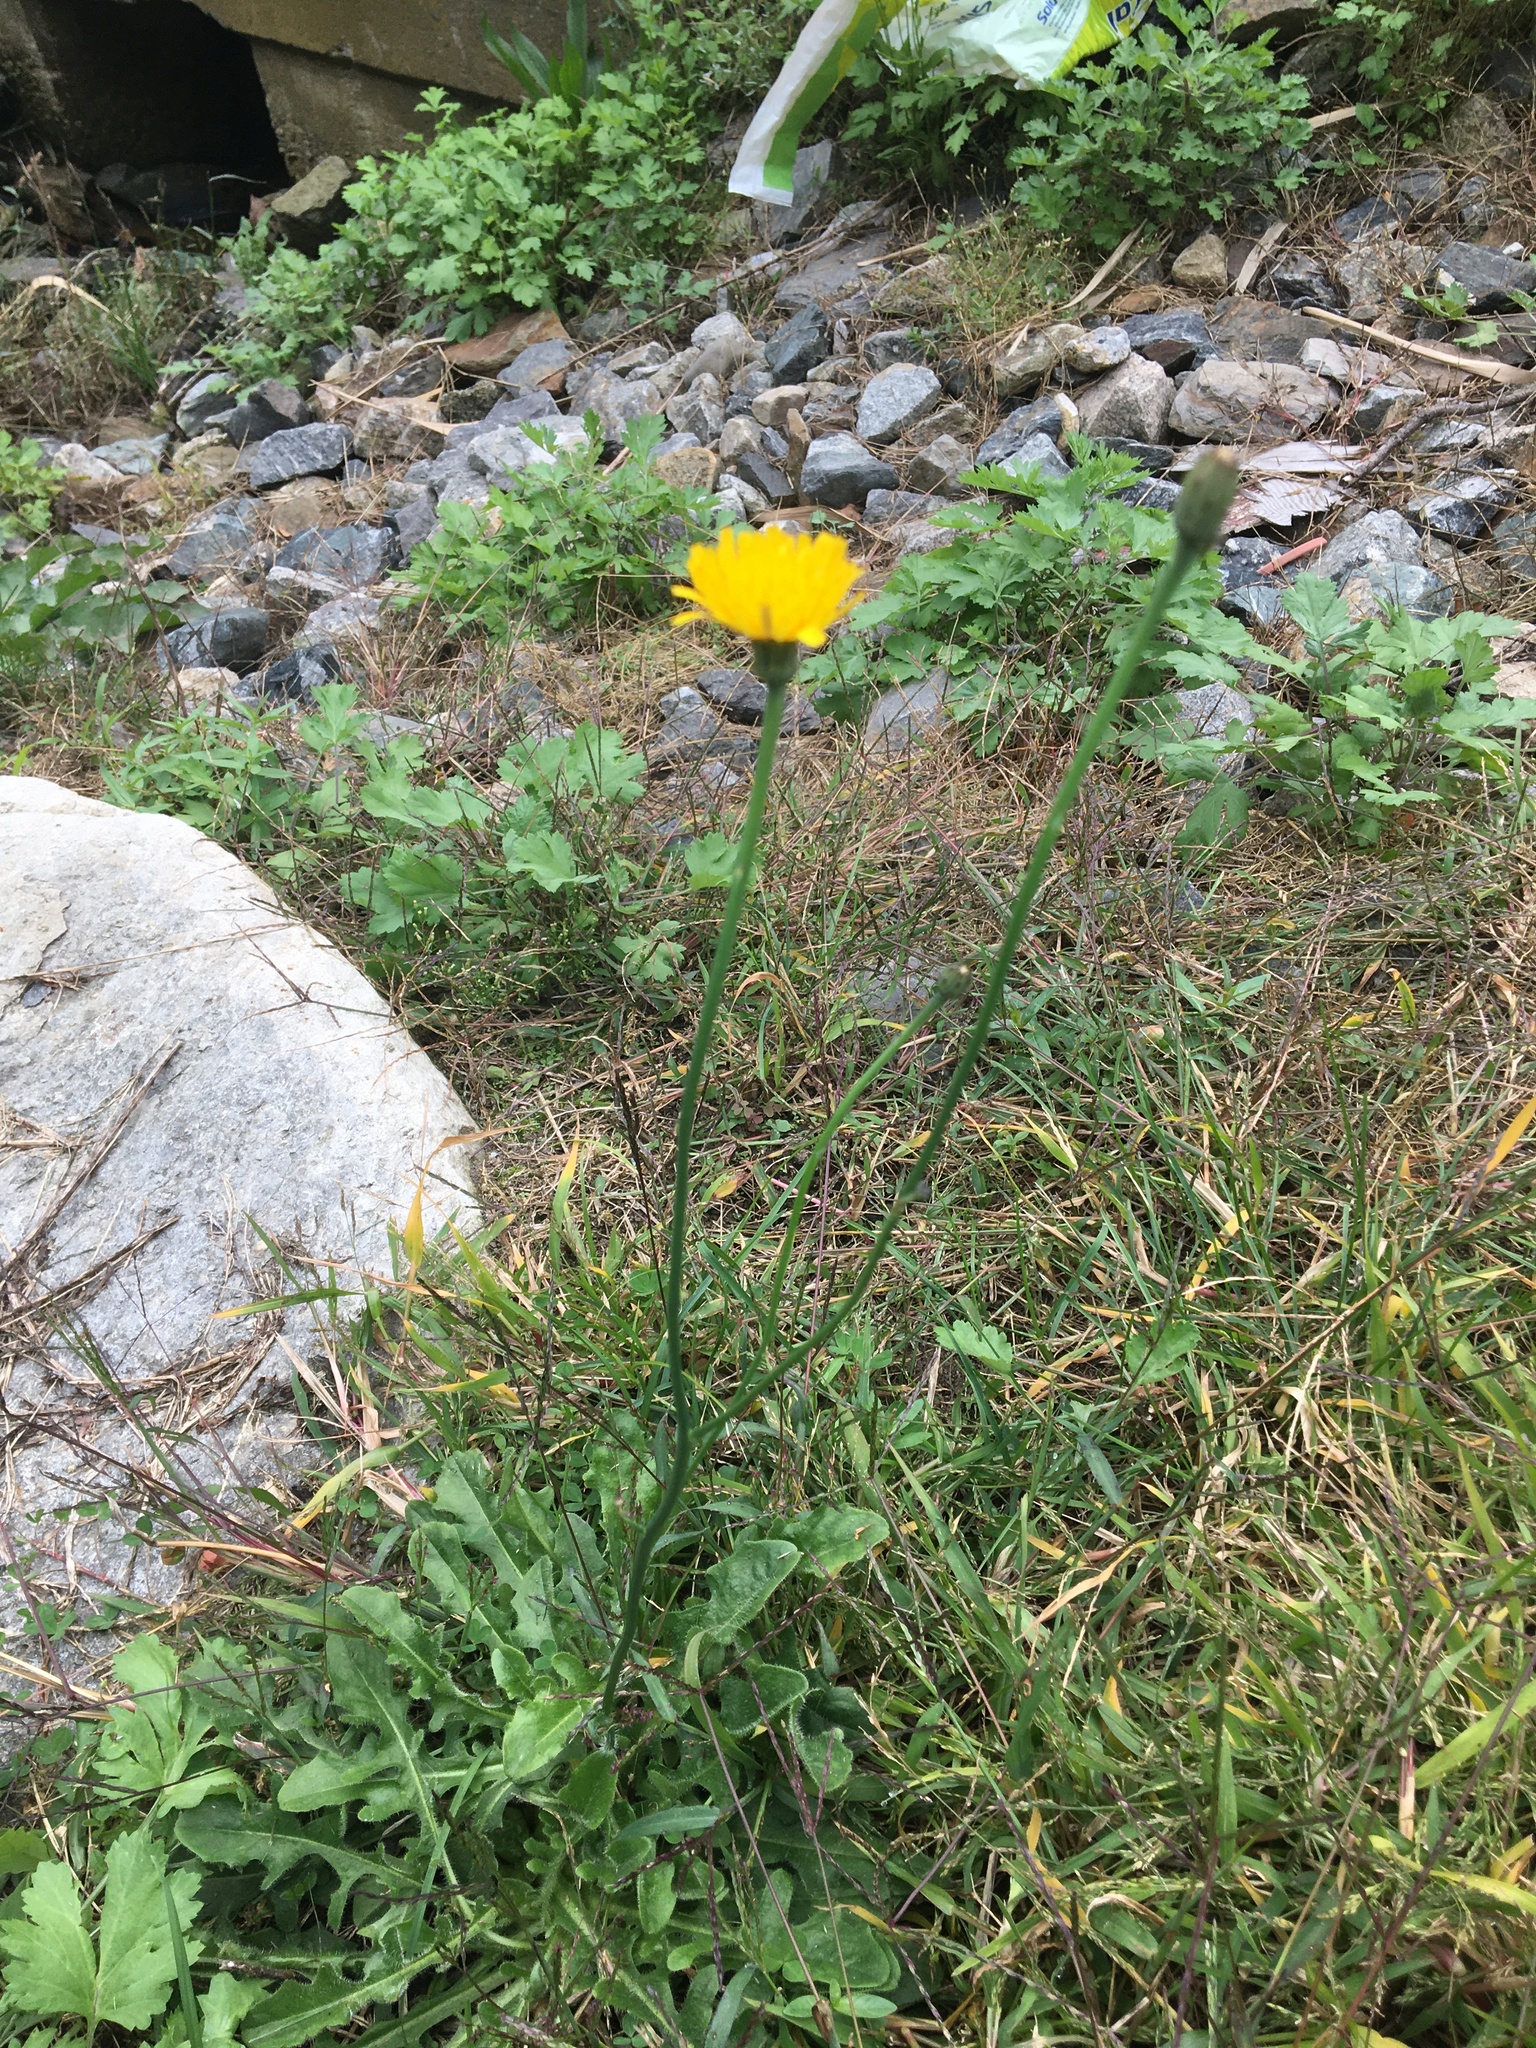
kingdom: Plantae
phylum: Tracheophyta
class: Magnoliopsida
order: Asterales
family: Asteraceae
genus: Hypochaeris
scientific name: Hypochaeris radicata
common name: Flatweed
